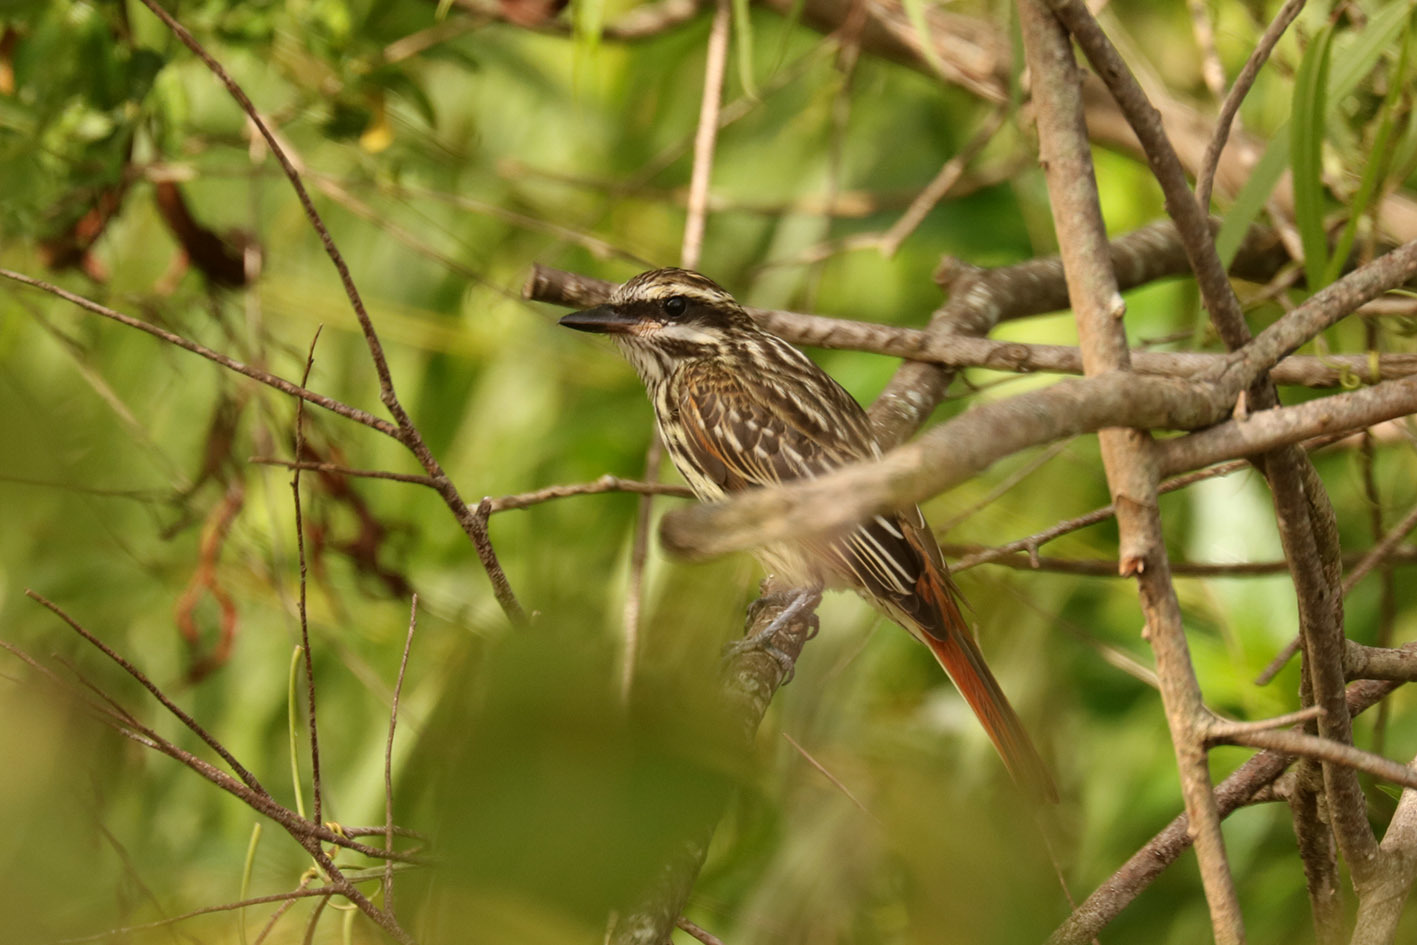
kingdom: Animalia
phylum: Chordata
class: Aves
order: Passeriformes
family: Tyrannidae
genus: Myiodynastes
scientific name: Myiodynastes maculatus
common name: Streaked flycatcher
